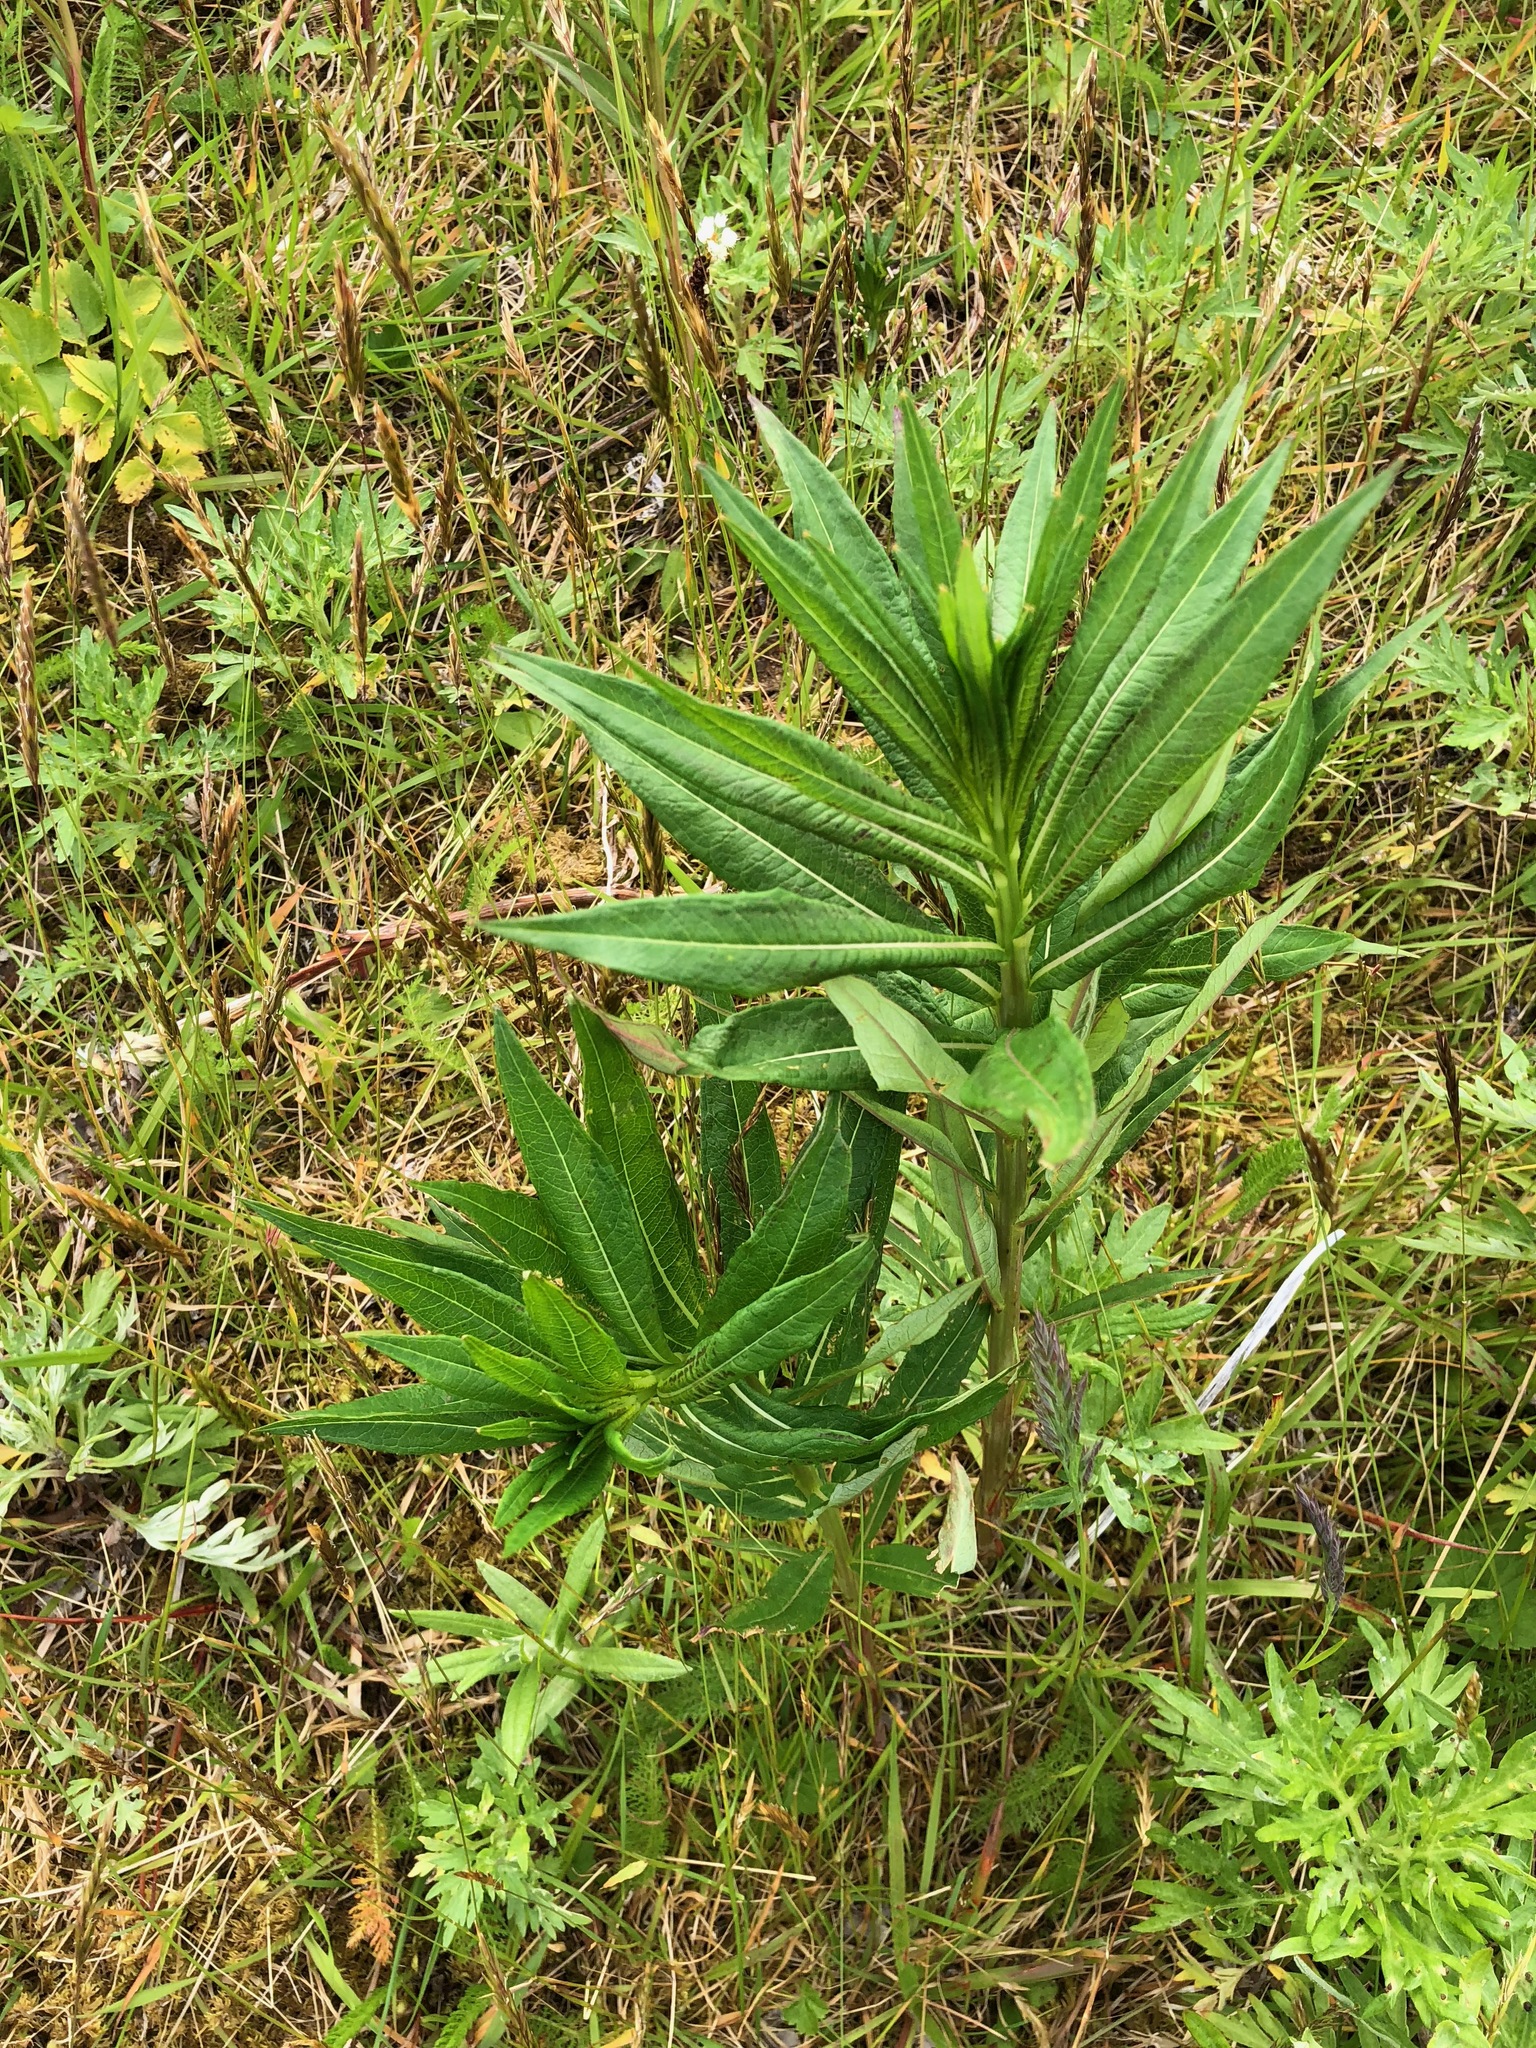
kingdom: Plantae
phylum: Tracheophyta
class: Magnoliopsida
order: Myrtales
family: Onagraceae
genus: Chamaenerion
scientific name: Chamaenerion angustifolium
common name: Fireweed
